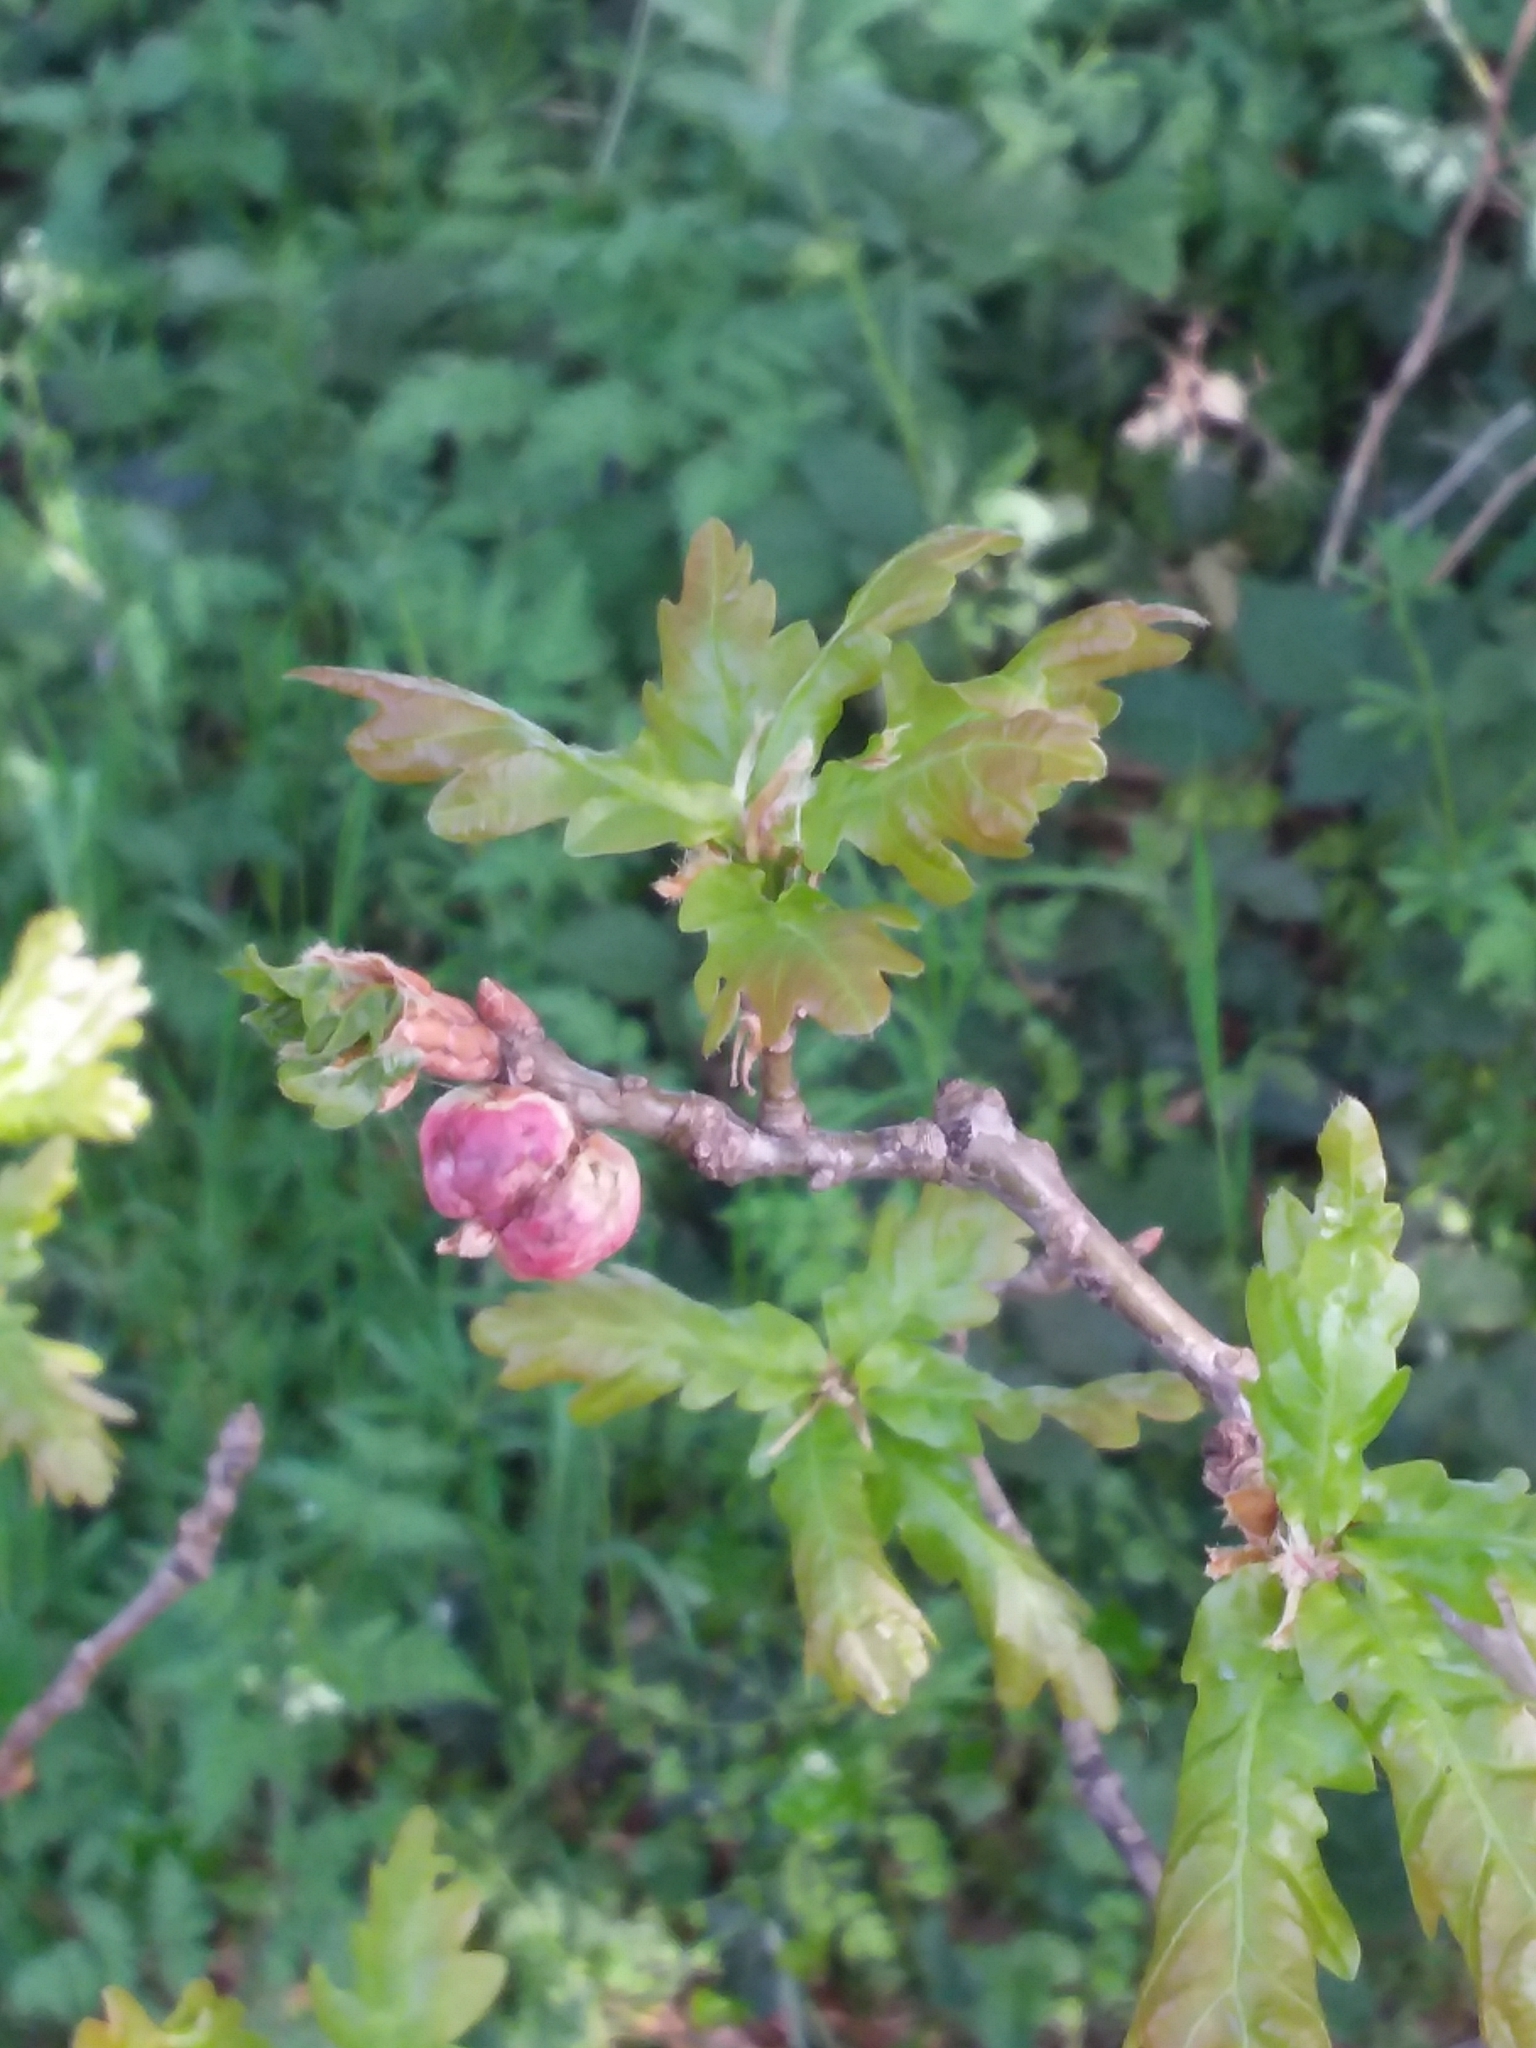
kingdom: Animalia
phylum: Arthropoda
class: Insecta
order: Hymenoptera
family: Cynipidae
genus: Biorhiza
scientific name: Biorhiza pallida
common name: Oak apple
